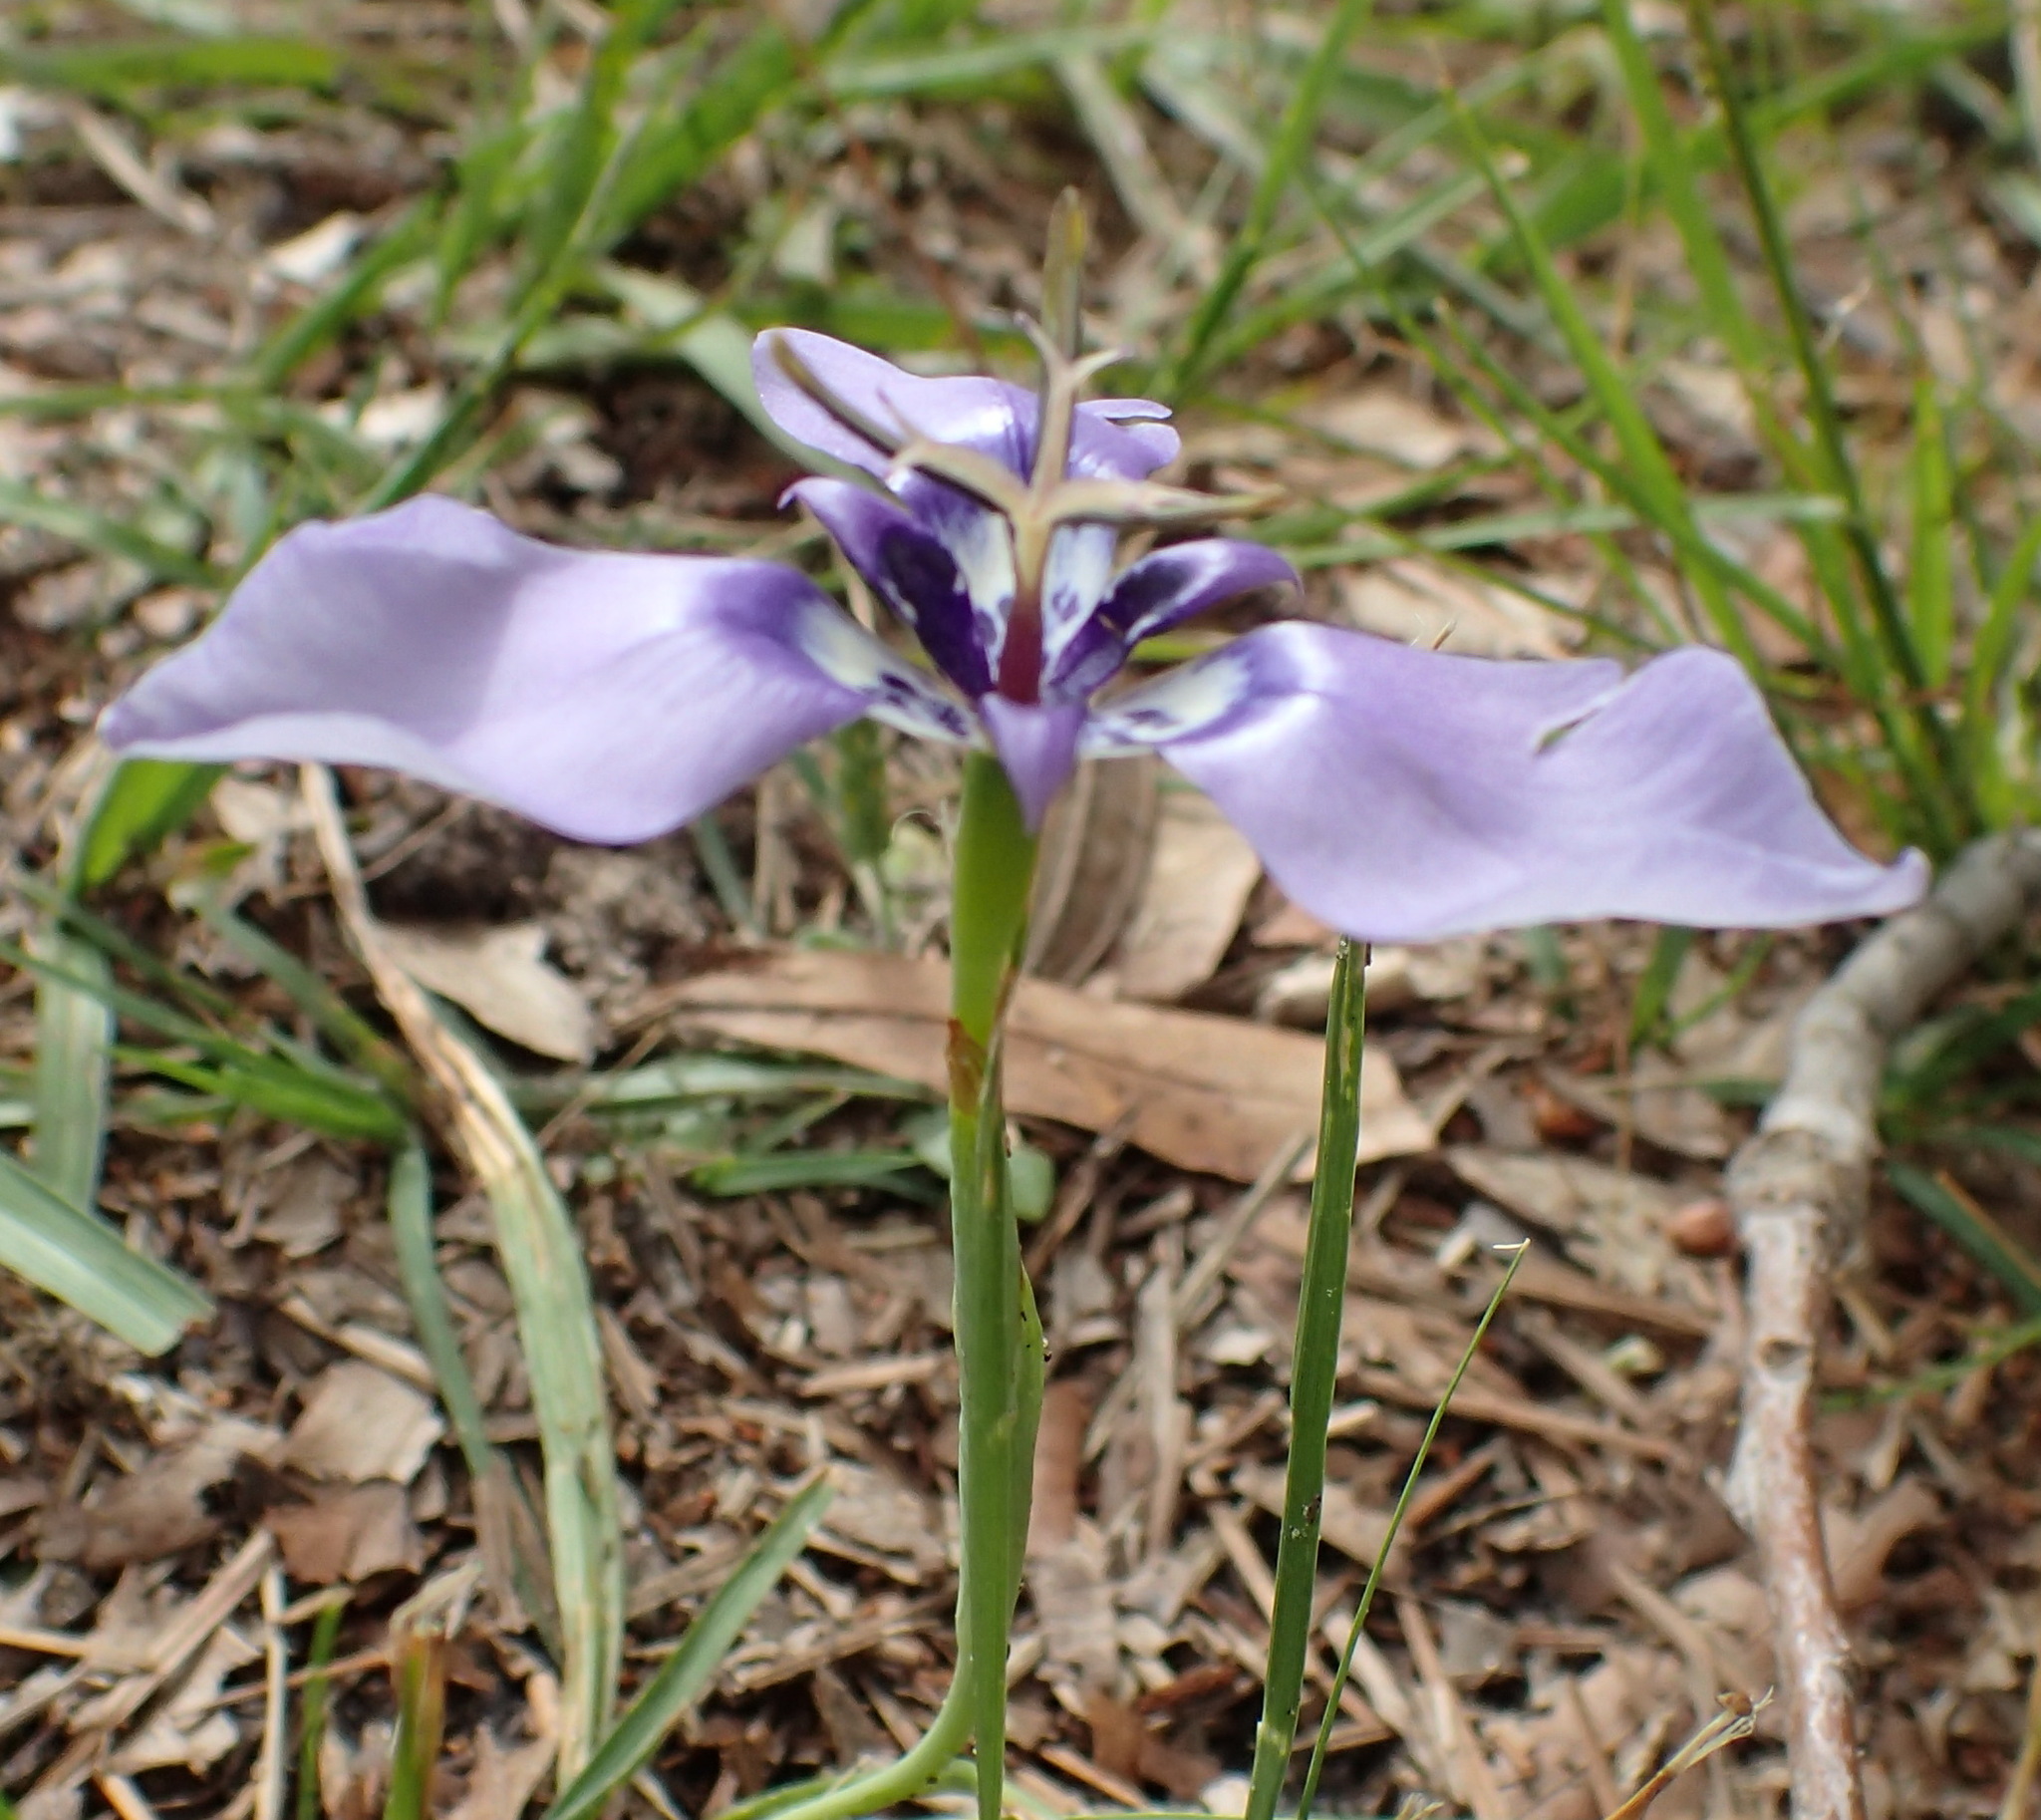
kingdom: Plantae
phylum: Tracheophyta
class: Liliopsida
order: Asparagales
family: Iridaceae
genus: Herbertia
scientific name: Herbertia lahue
